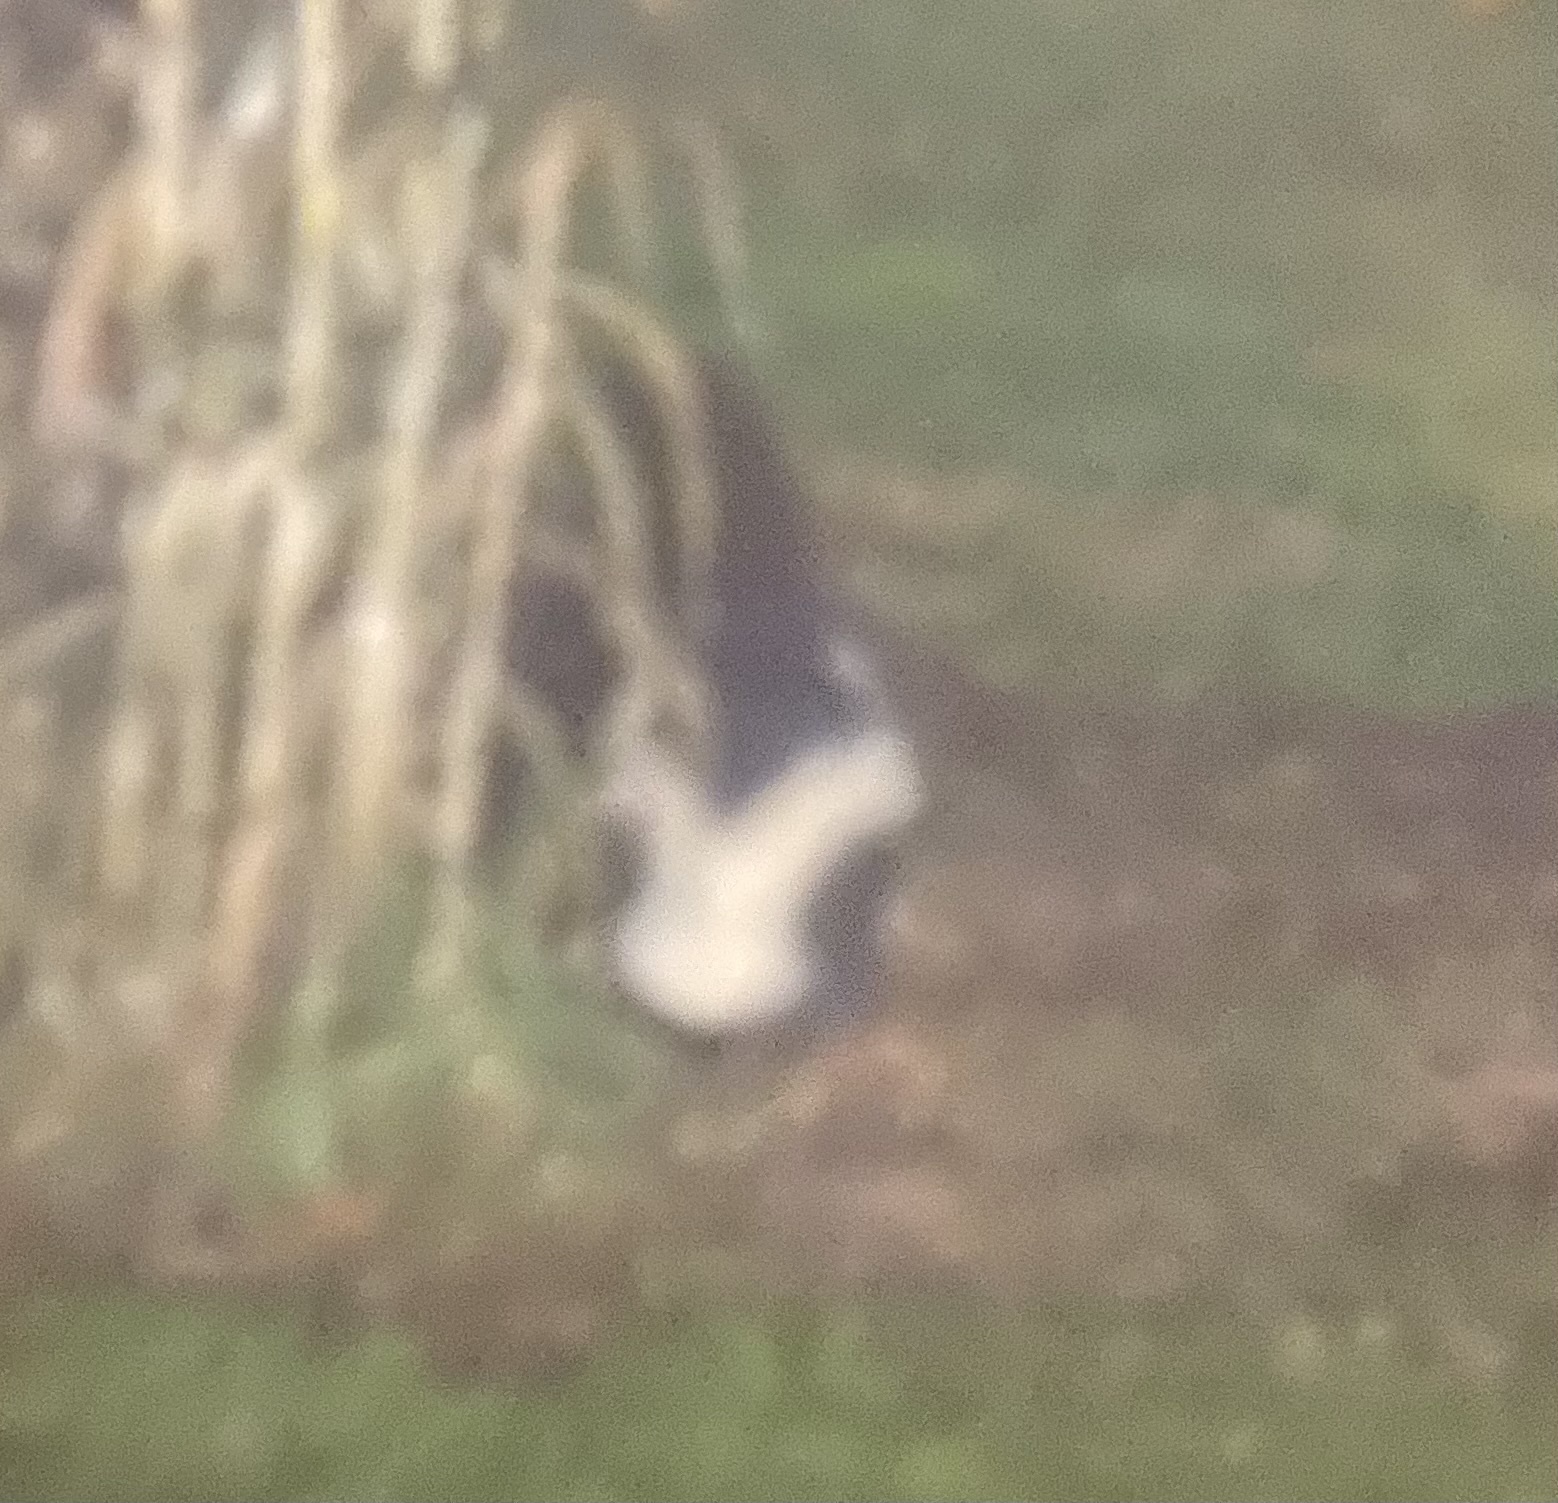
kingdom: Animalia
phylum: Chordata
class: Mammalia
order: Carnivora
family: Mephitidae
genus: Mephitis
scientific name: Mephitis mephitis
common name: Striped skunk
